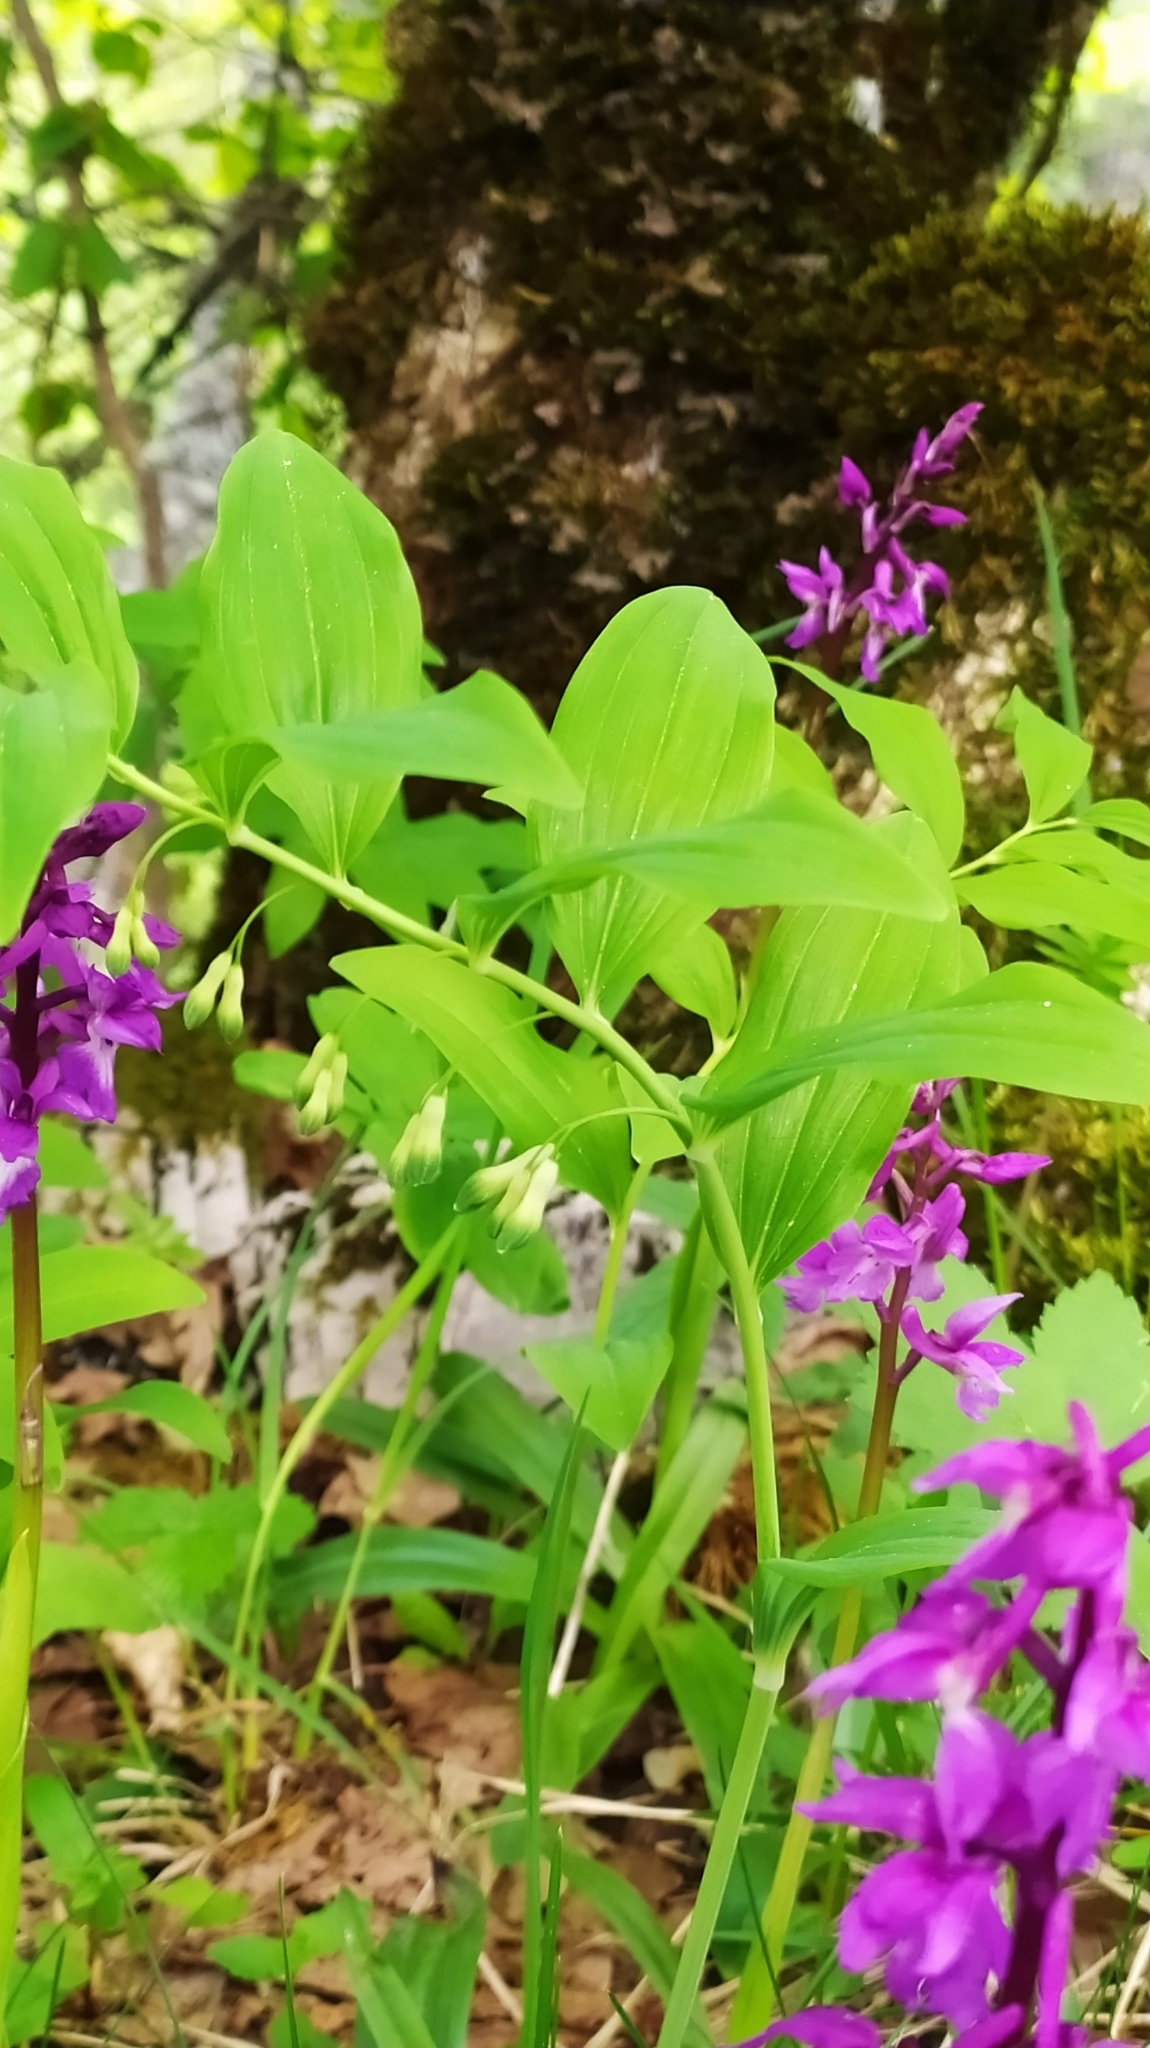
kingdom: Plantae
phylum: Tracheophyta
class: Liliopsida
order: Asparagales
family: Asparagaceae
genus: Polygonatum
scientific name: Polygonatum multiflorum
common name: Solomon's-seal
